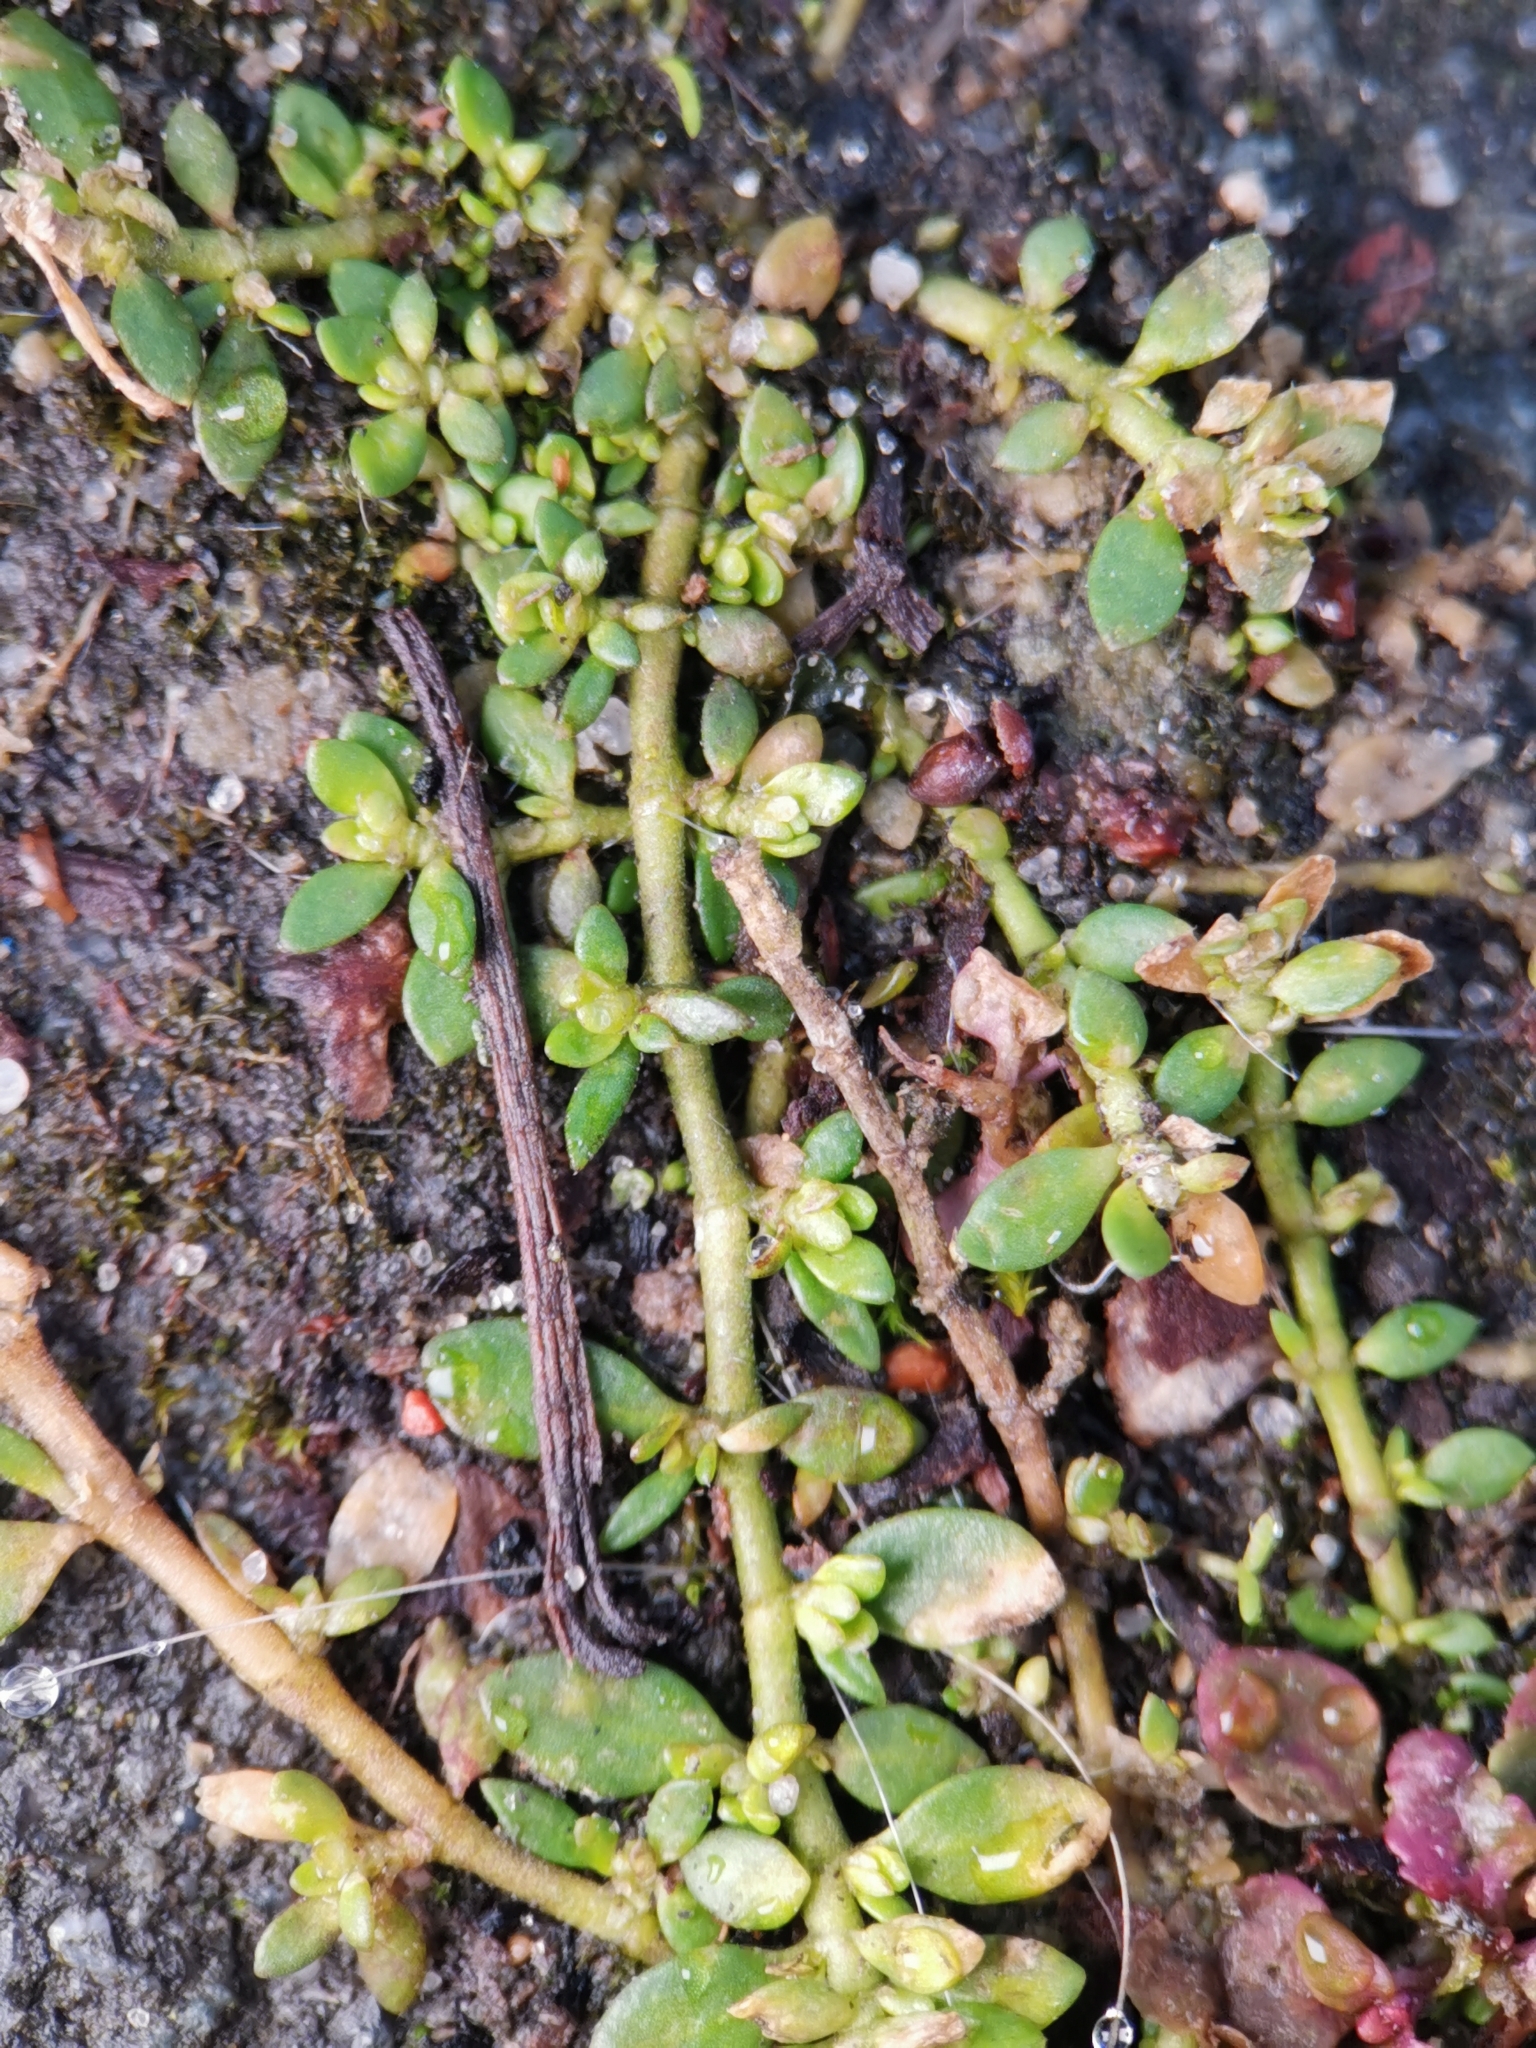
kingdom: Plantae
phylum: Tracheophyta
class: Magnoliopsida
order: Caryophyllales
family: Caryophyllaceae
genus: Herniaria
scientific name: Herniaria glabra
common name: Smooth rupturewort
